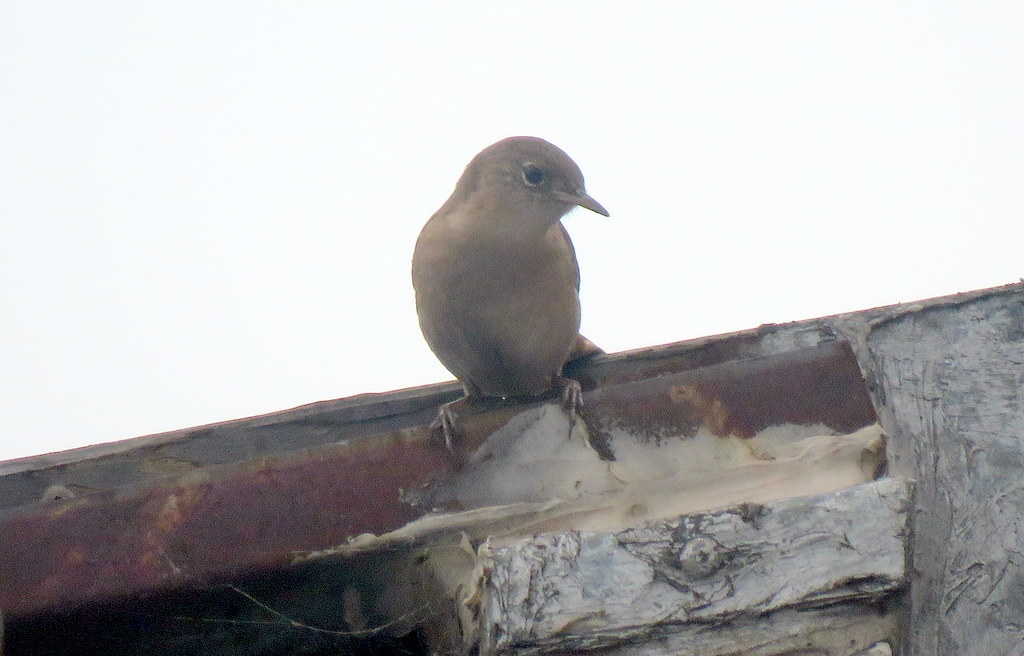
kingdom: Animalia
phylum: Chordata
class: Aves
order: Passeriformes
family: Troglodytidae
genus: Troglodytes
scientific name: Troglodytes aedon
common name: House wren
